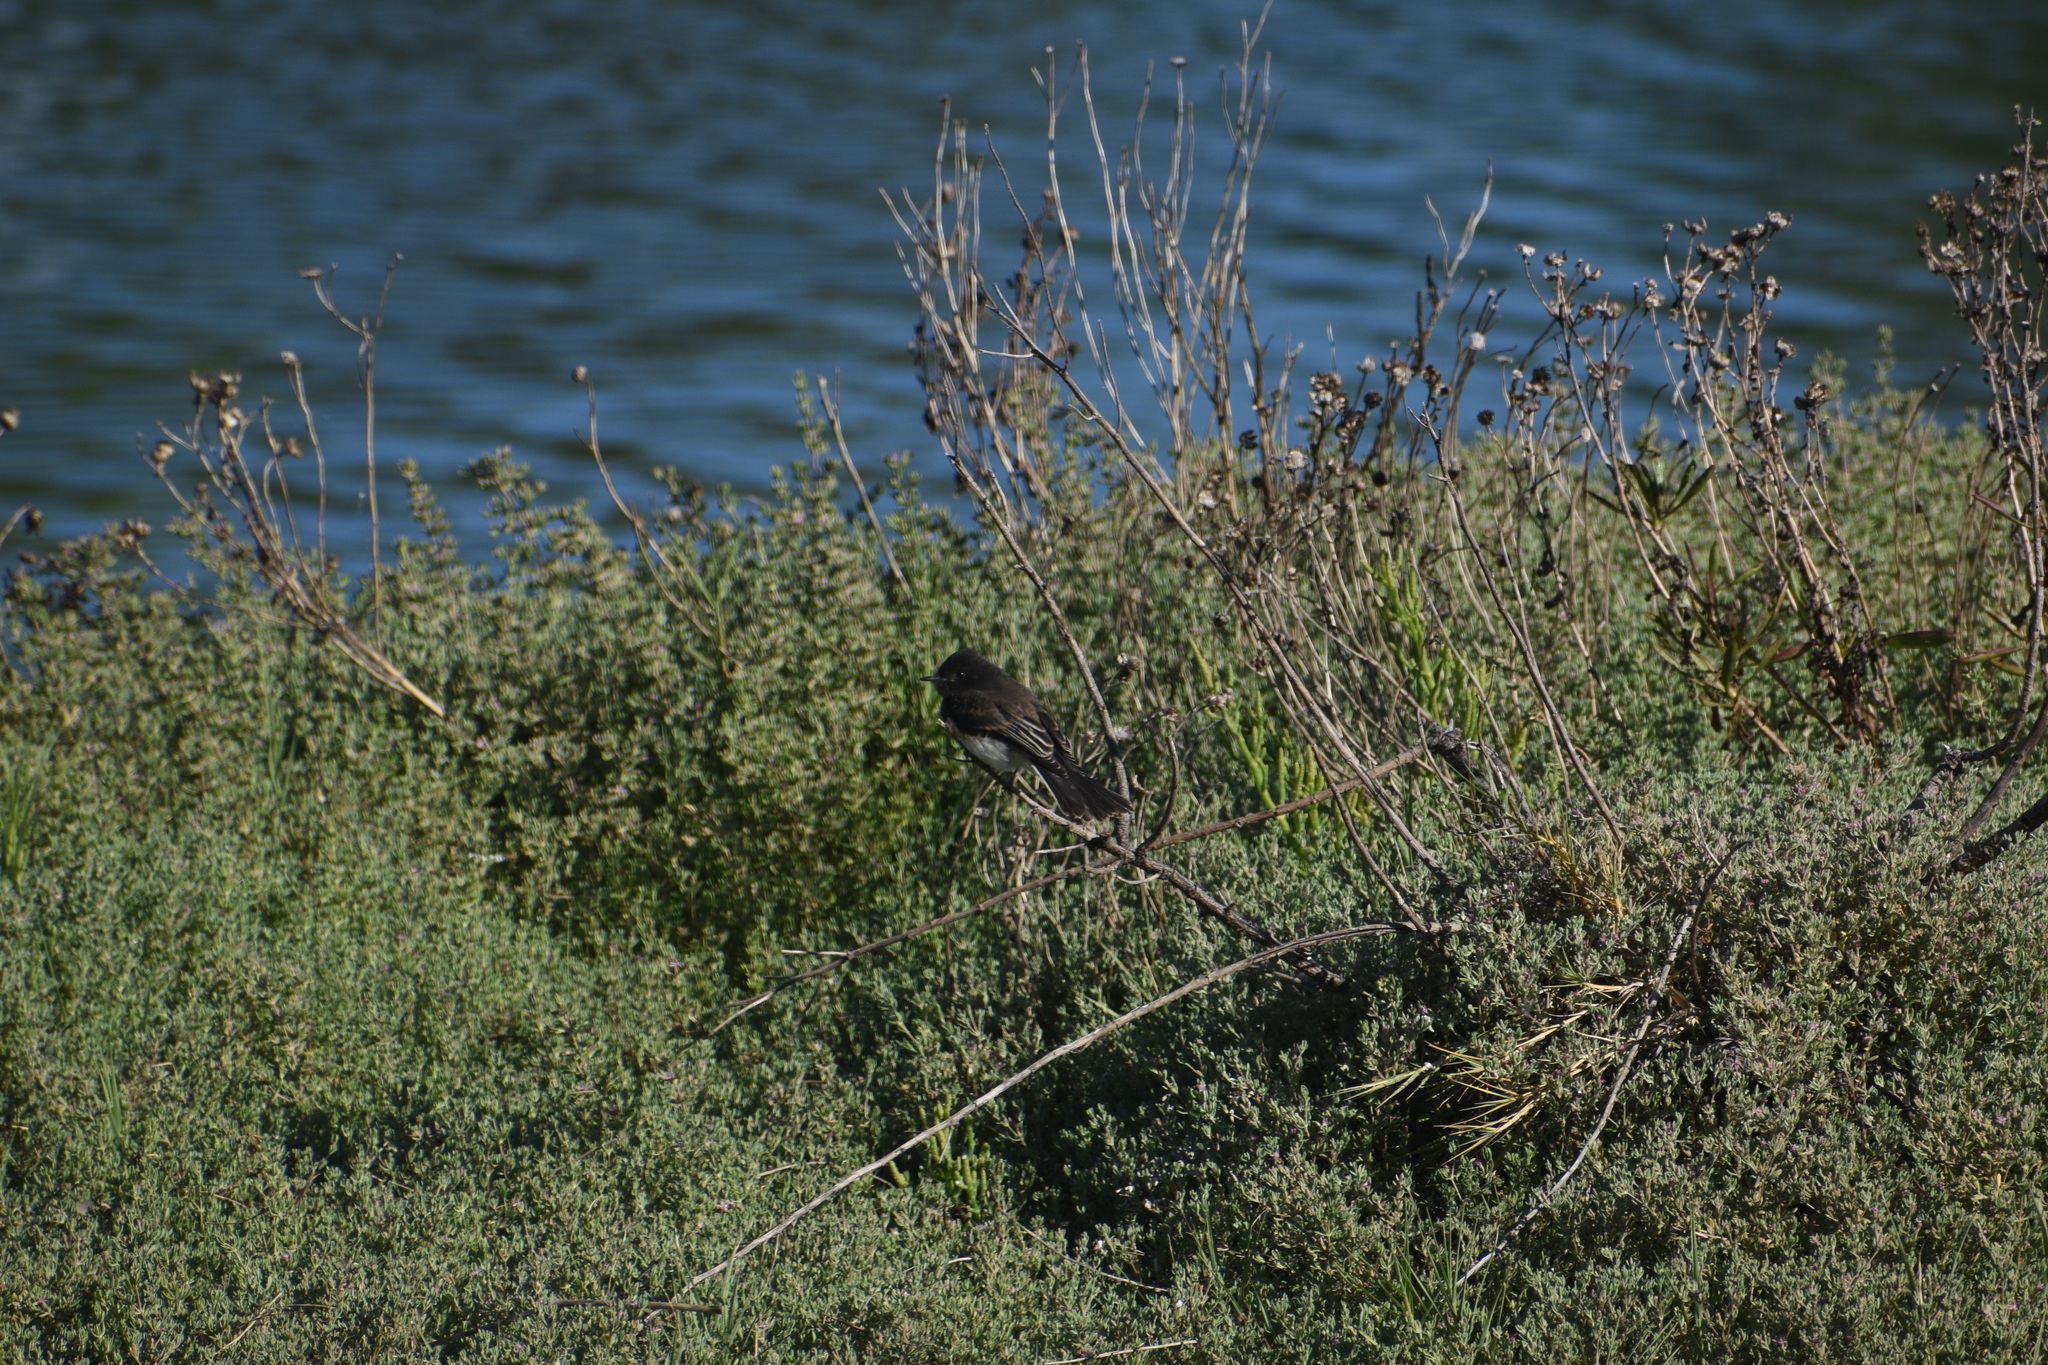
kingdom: Animalia
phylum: Chordata
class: Aves
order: Passeriformes
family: Tyrannidae
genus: Sayornis
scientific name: Sayornis nigricans
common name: Black phoebe
